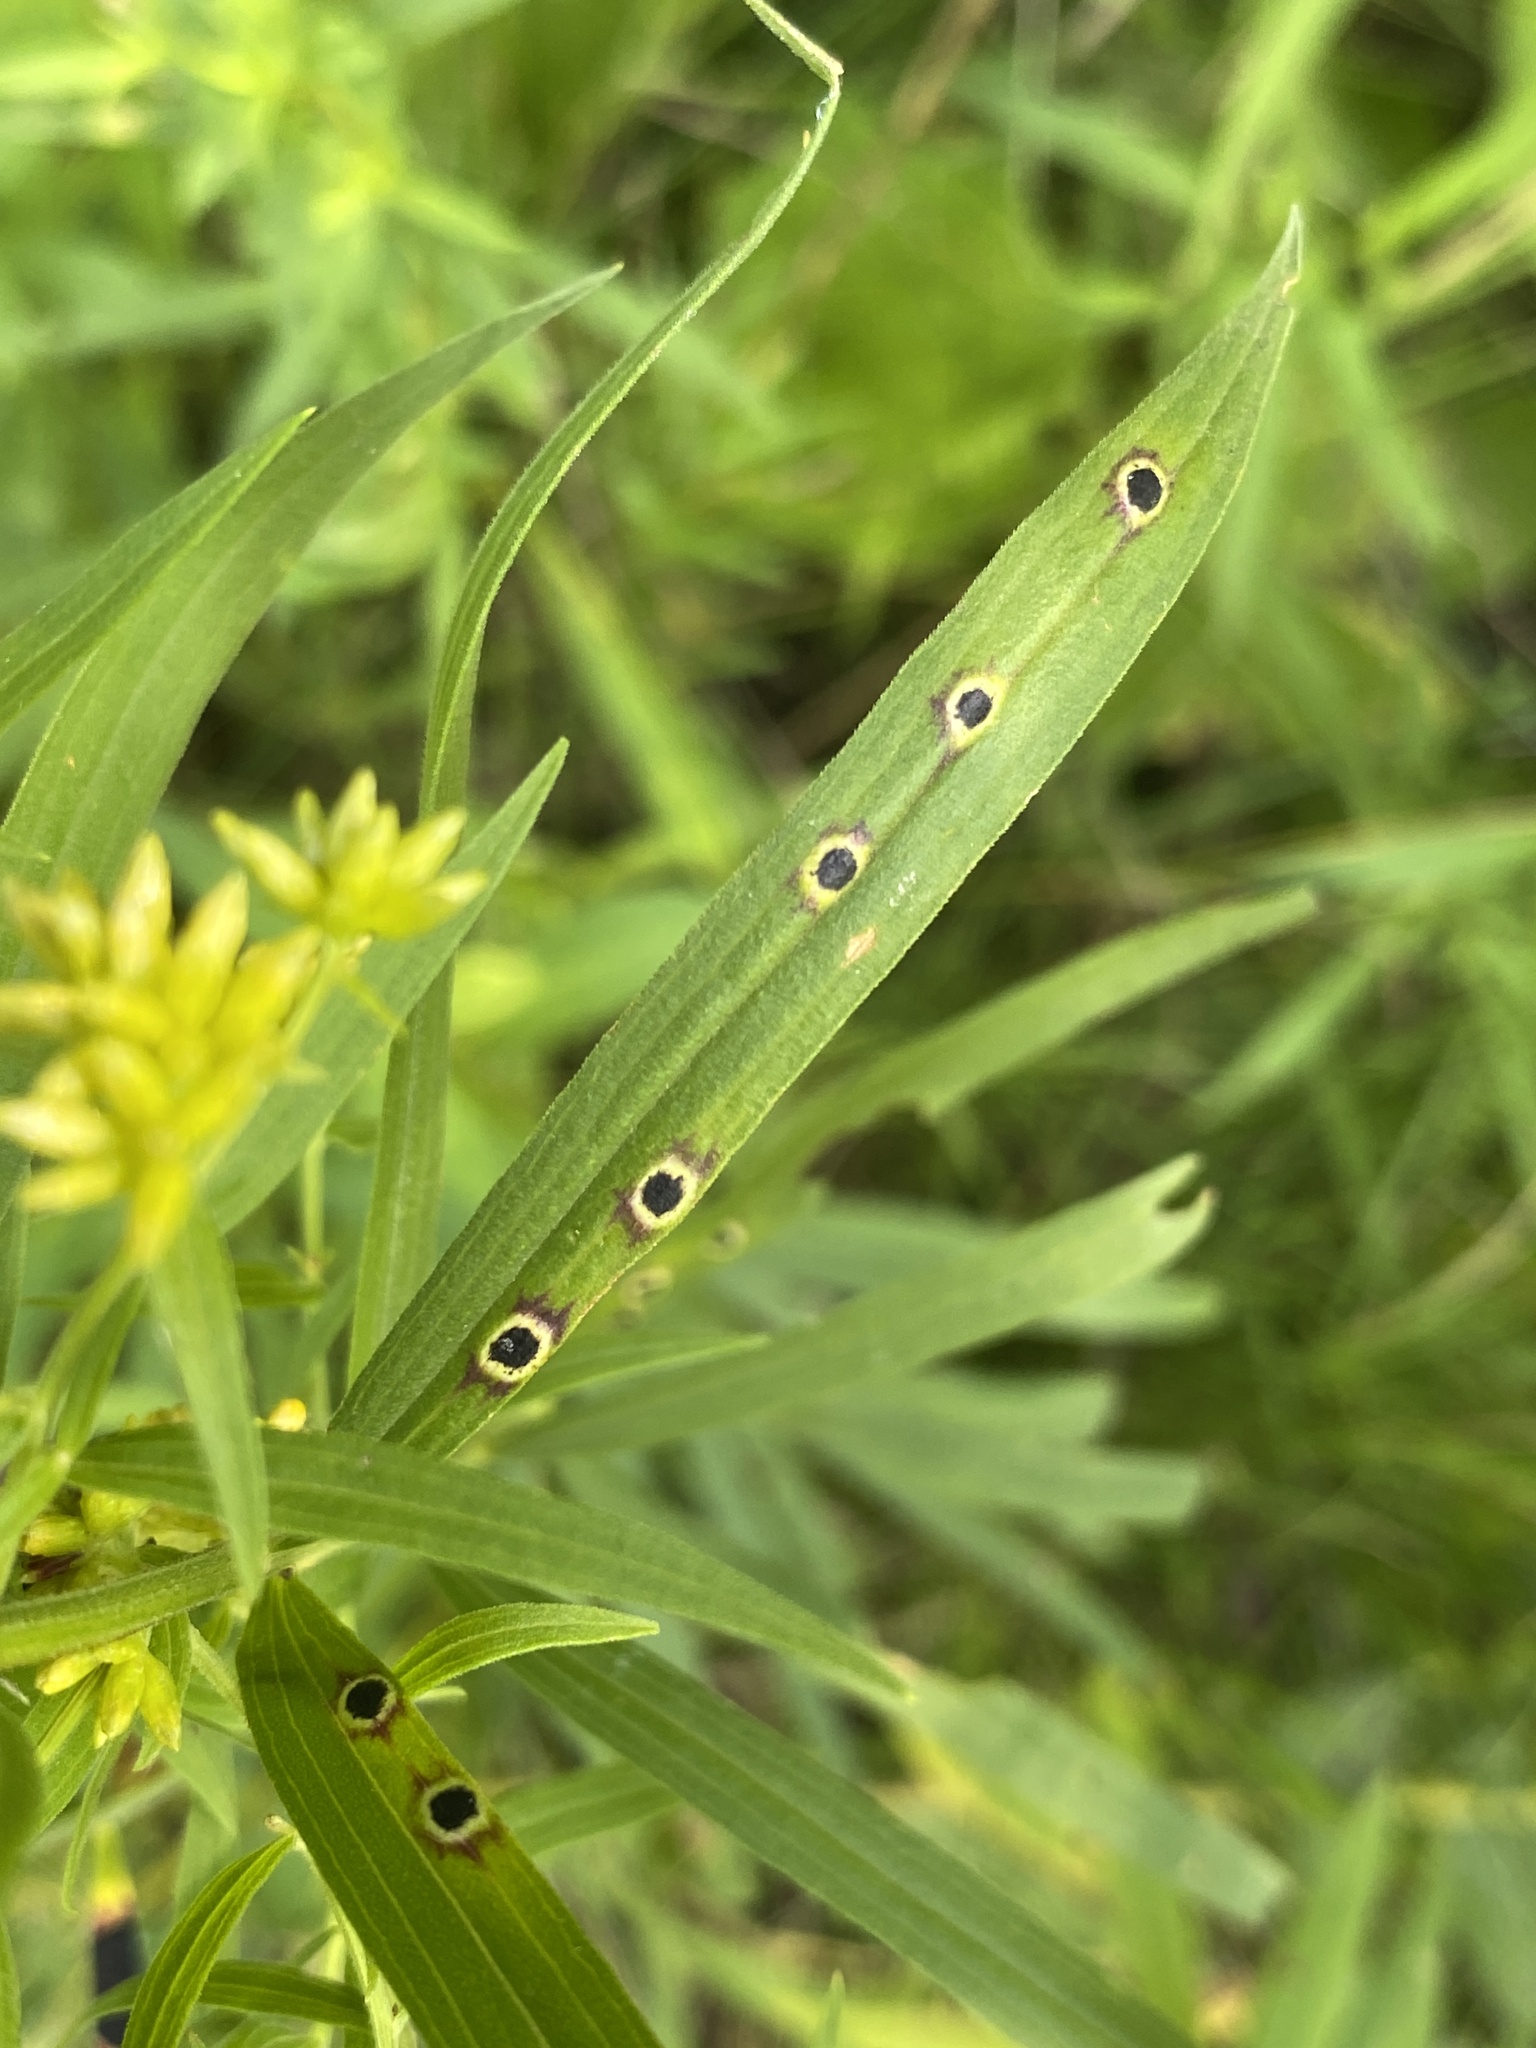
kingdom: Animalia
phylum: Arthropoda
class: Insecta
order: Diptera
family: Cecidomyiidae
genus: Asteromyia
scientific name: Asteromyia euthamiae
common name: Euthamia leaf gall midge
